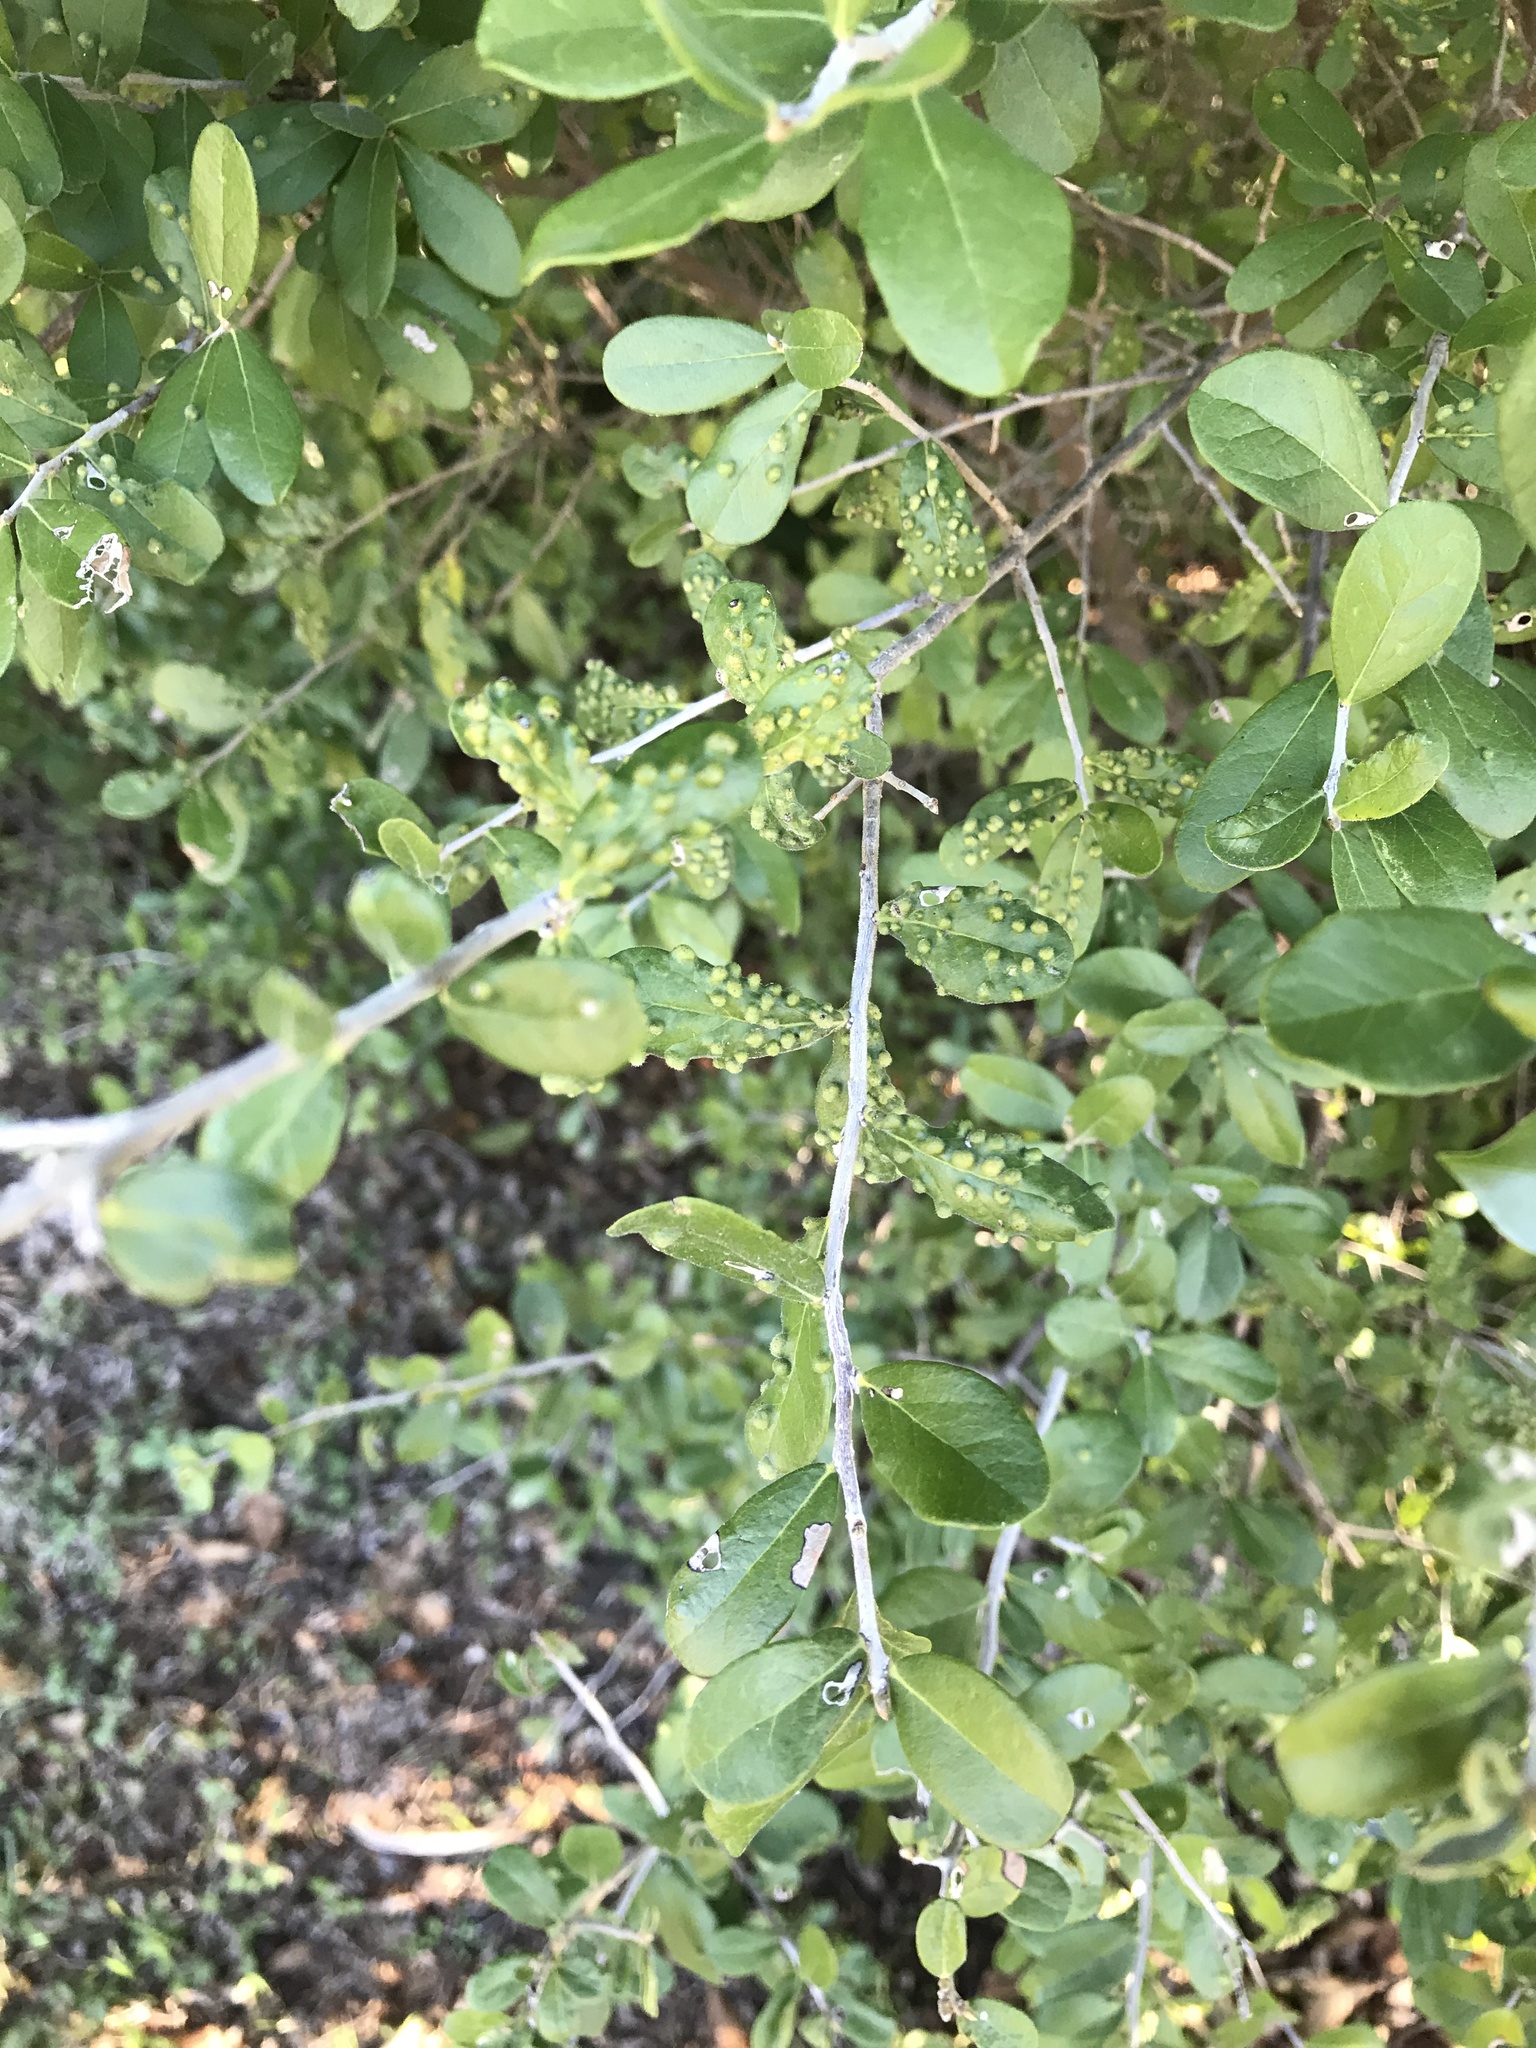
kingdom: Plantae
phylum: Tracheophyta
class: Magnoliopsida
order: Ericales
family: Ebenaceae
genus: Diospyros
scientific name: Diospyros texana
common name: Texas persimmon
